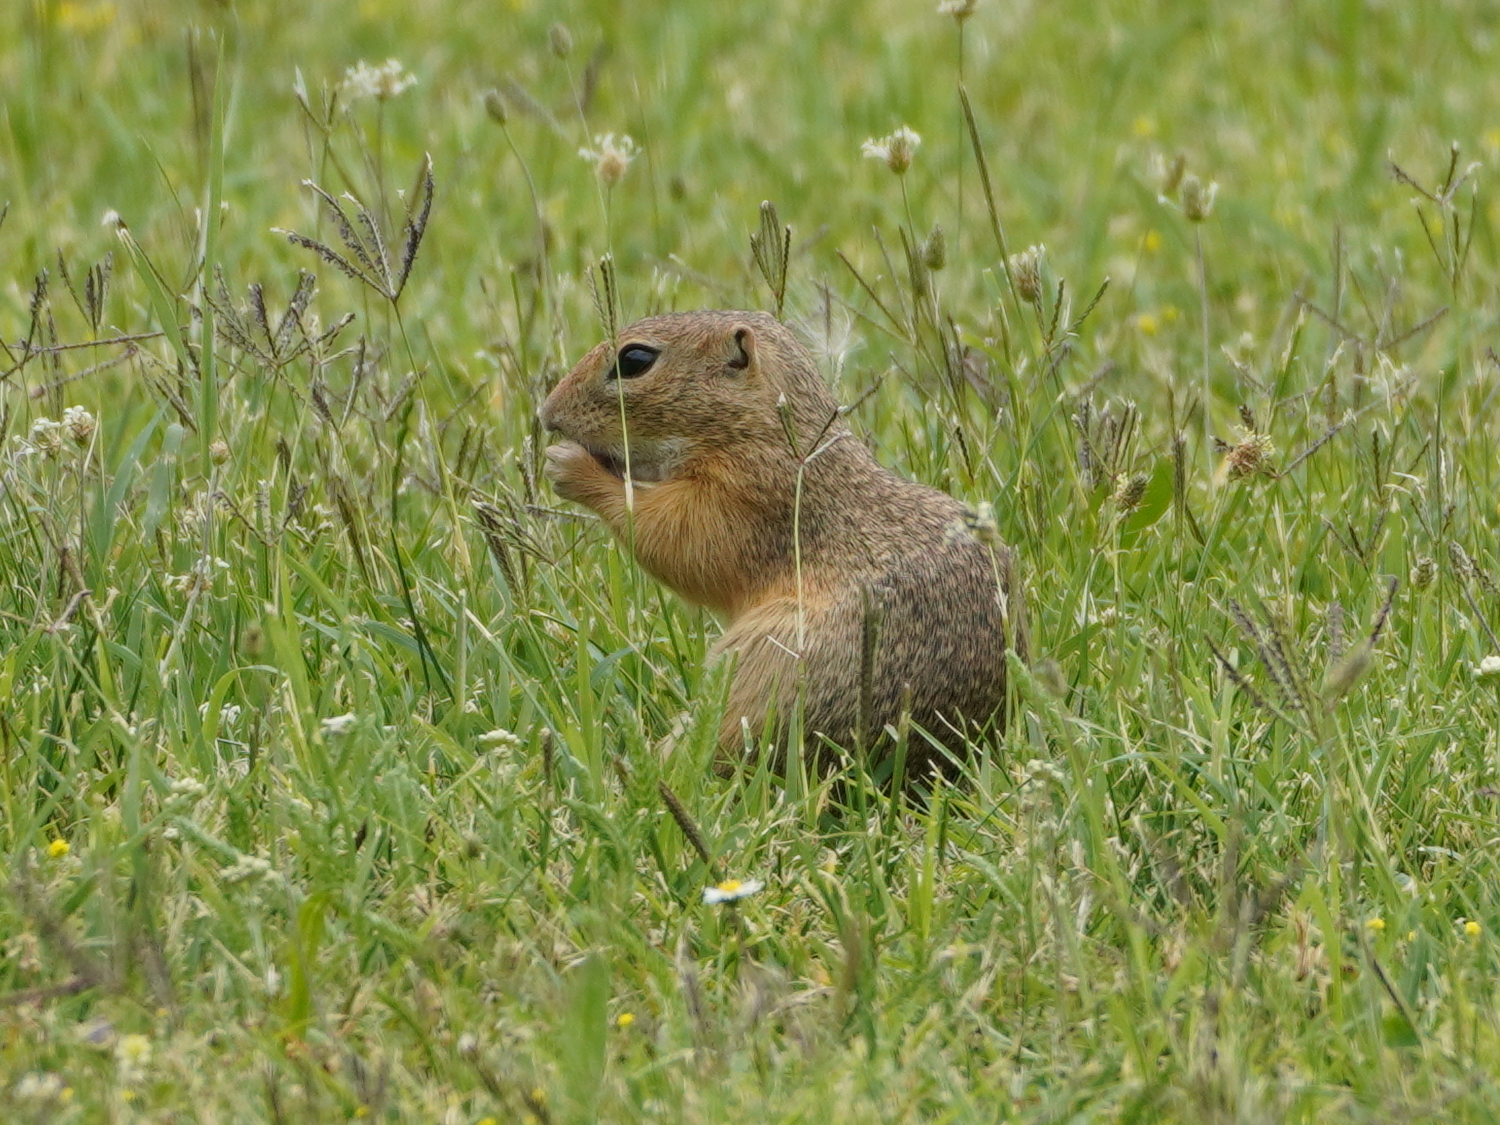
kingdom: Animalia
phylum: Chordata
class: Mammalia
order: Rodentia
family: Sciuridae
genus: Spermophilus
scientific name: Spermophilus citellus
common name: European ground squirrel
